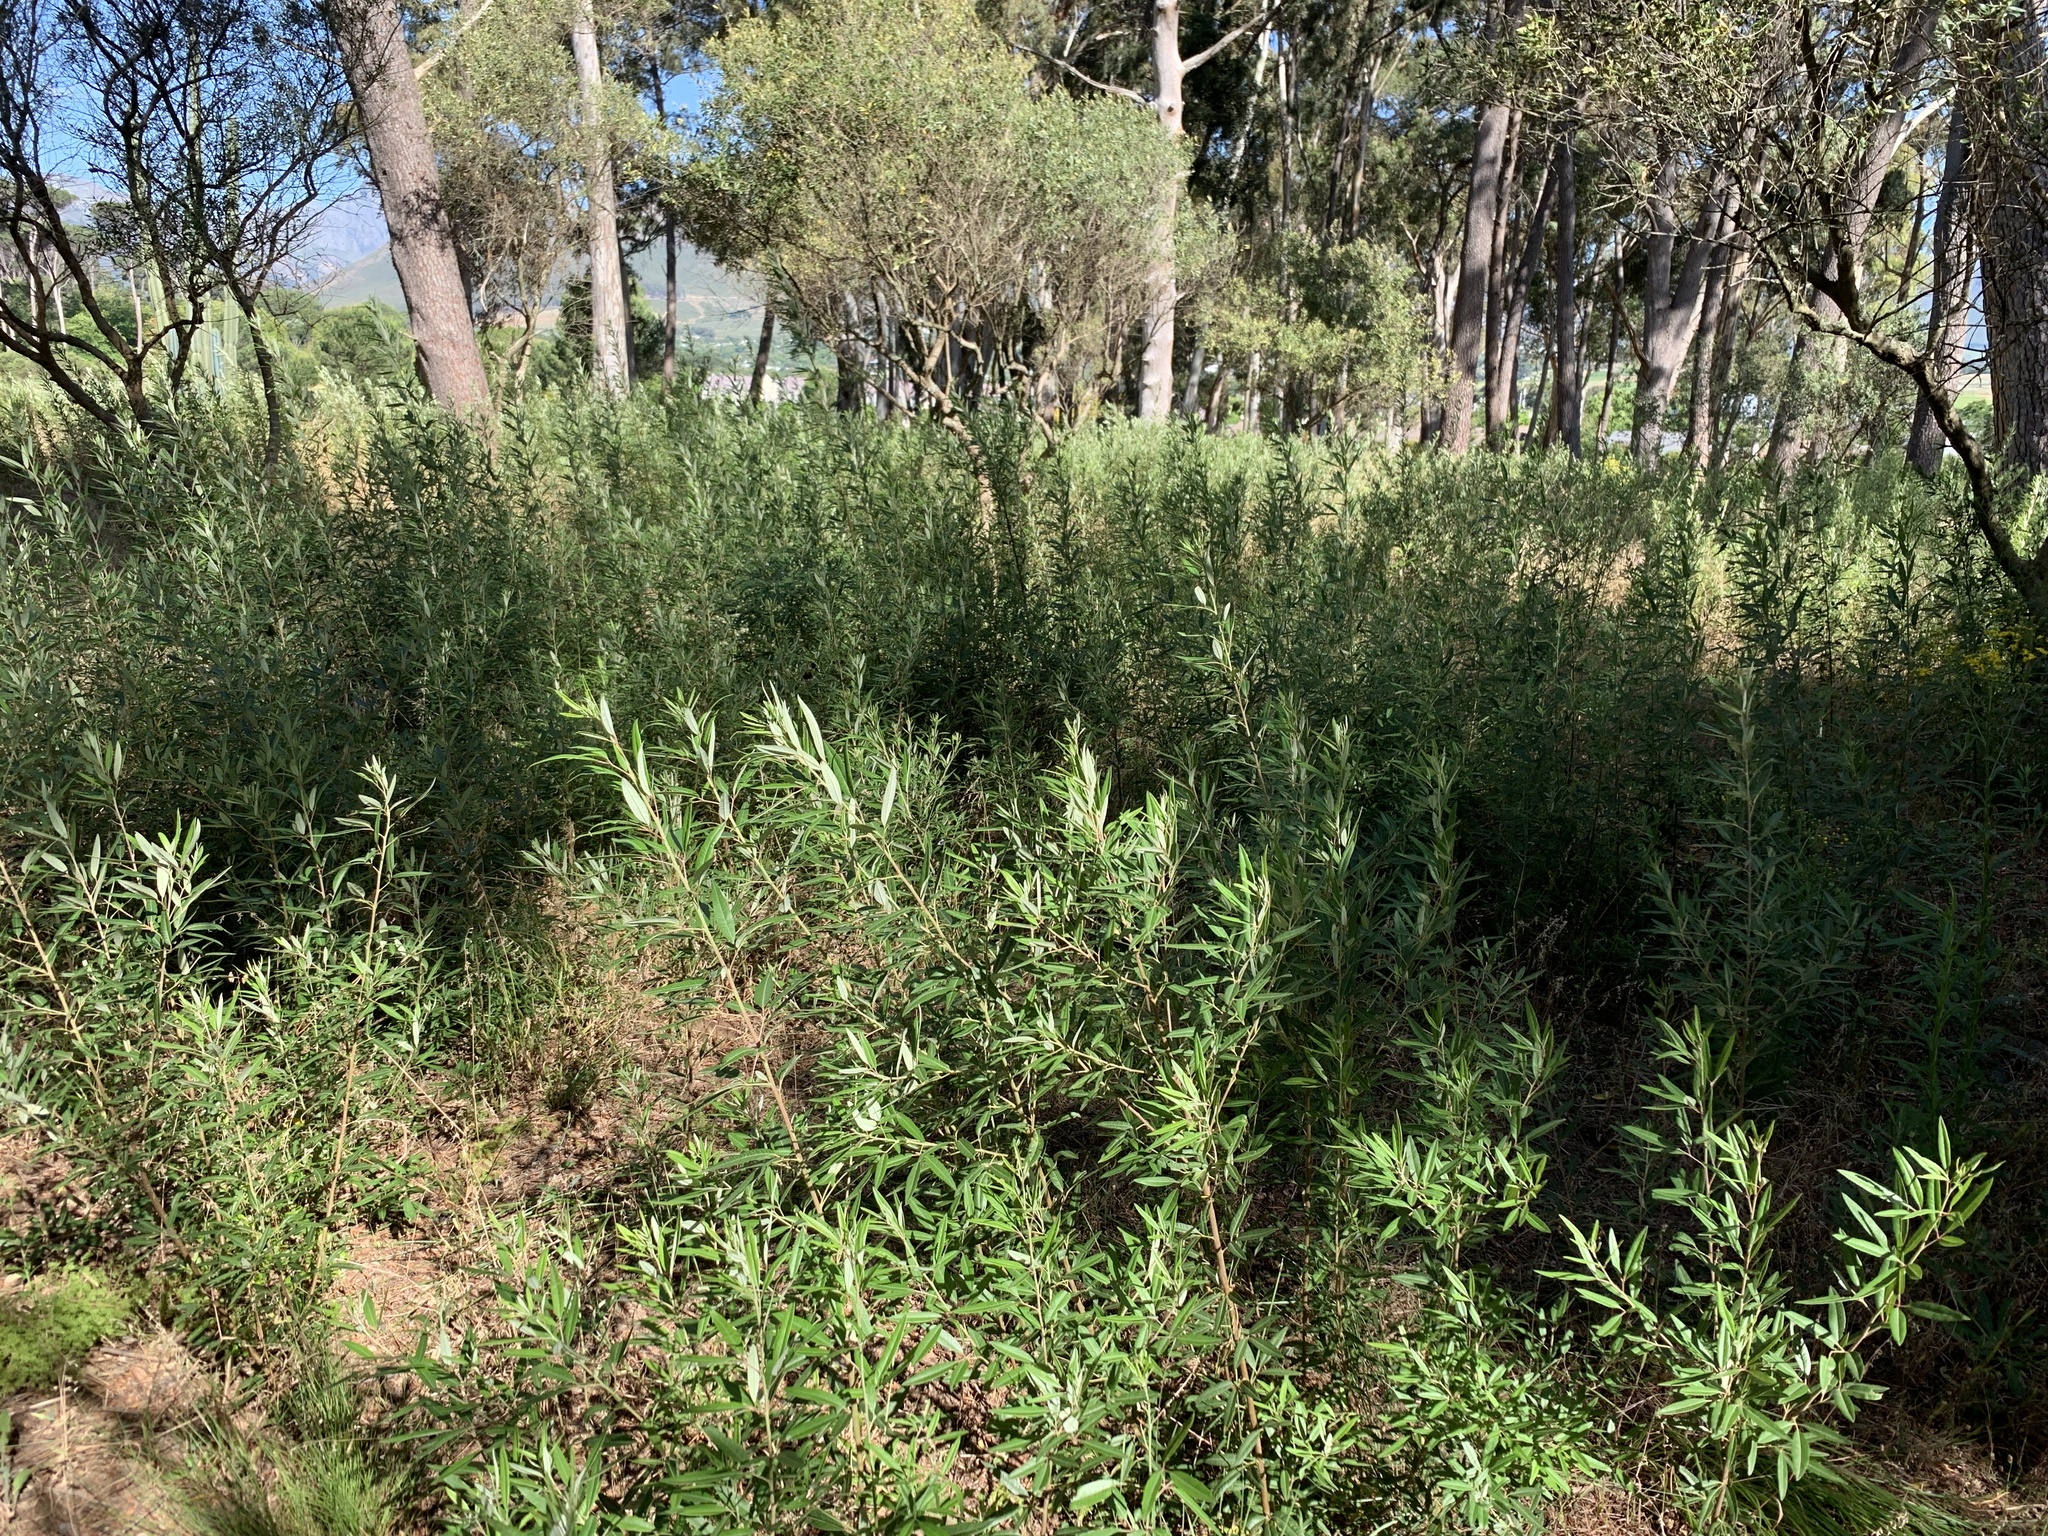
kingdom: Plantae
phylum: Tracheophyta
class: Magnoliopsida
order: Sapindales
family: Anacardiaceae
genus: Searsia
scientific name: Searsia angustifolia
